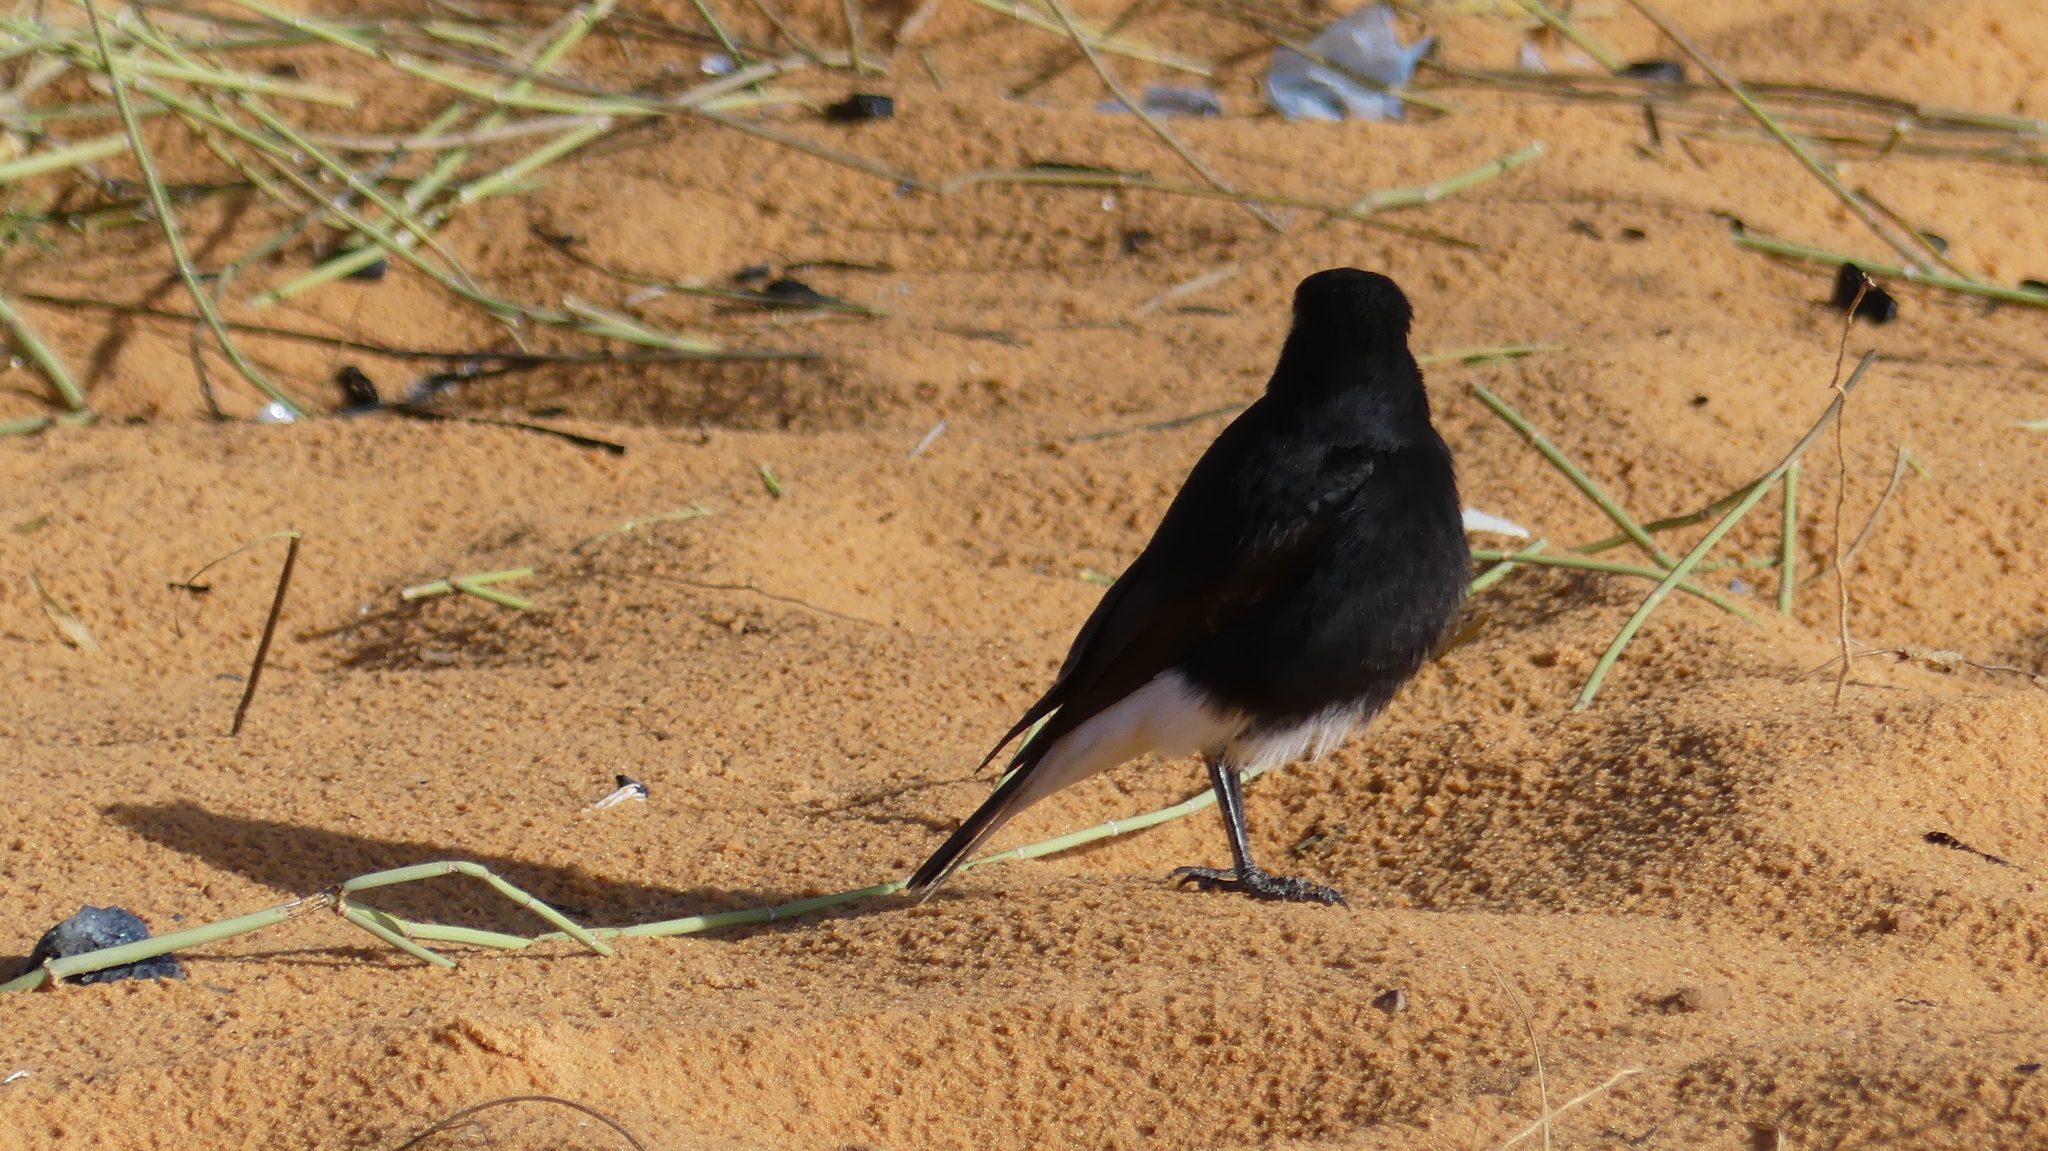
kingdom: Animalia
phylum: Chordata
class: Aves
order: Passeriformes
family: Muscicapidae
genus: Oenanthe
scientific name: Oenanthe leucopyga
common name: White-crowned wheatear
